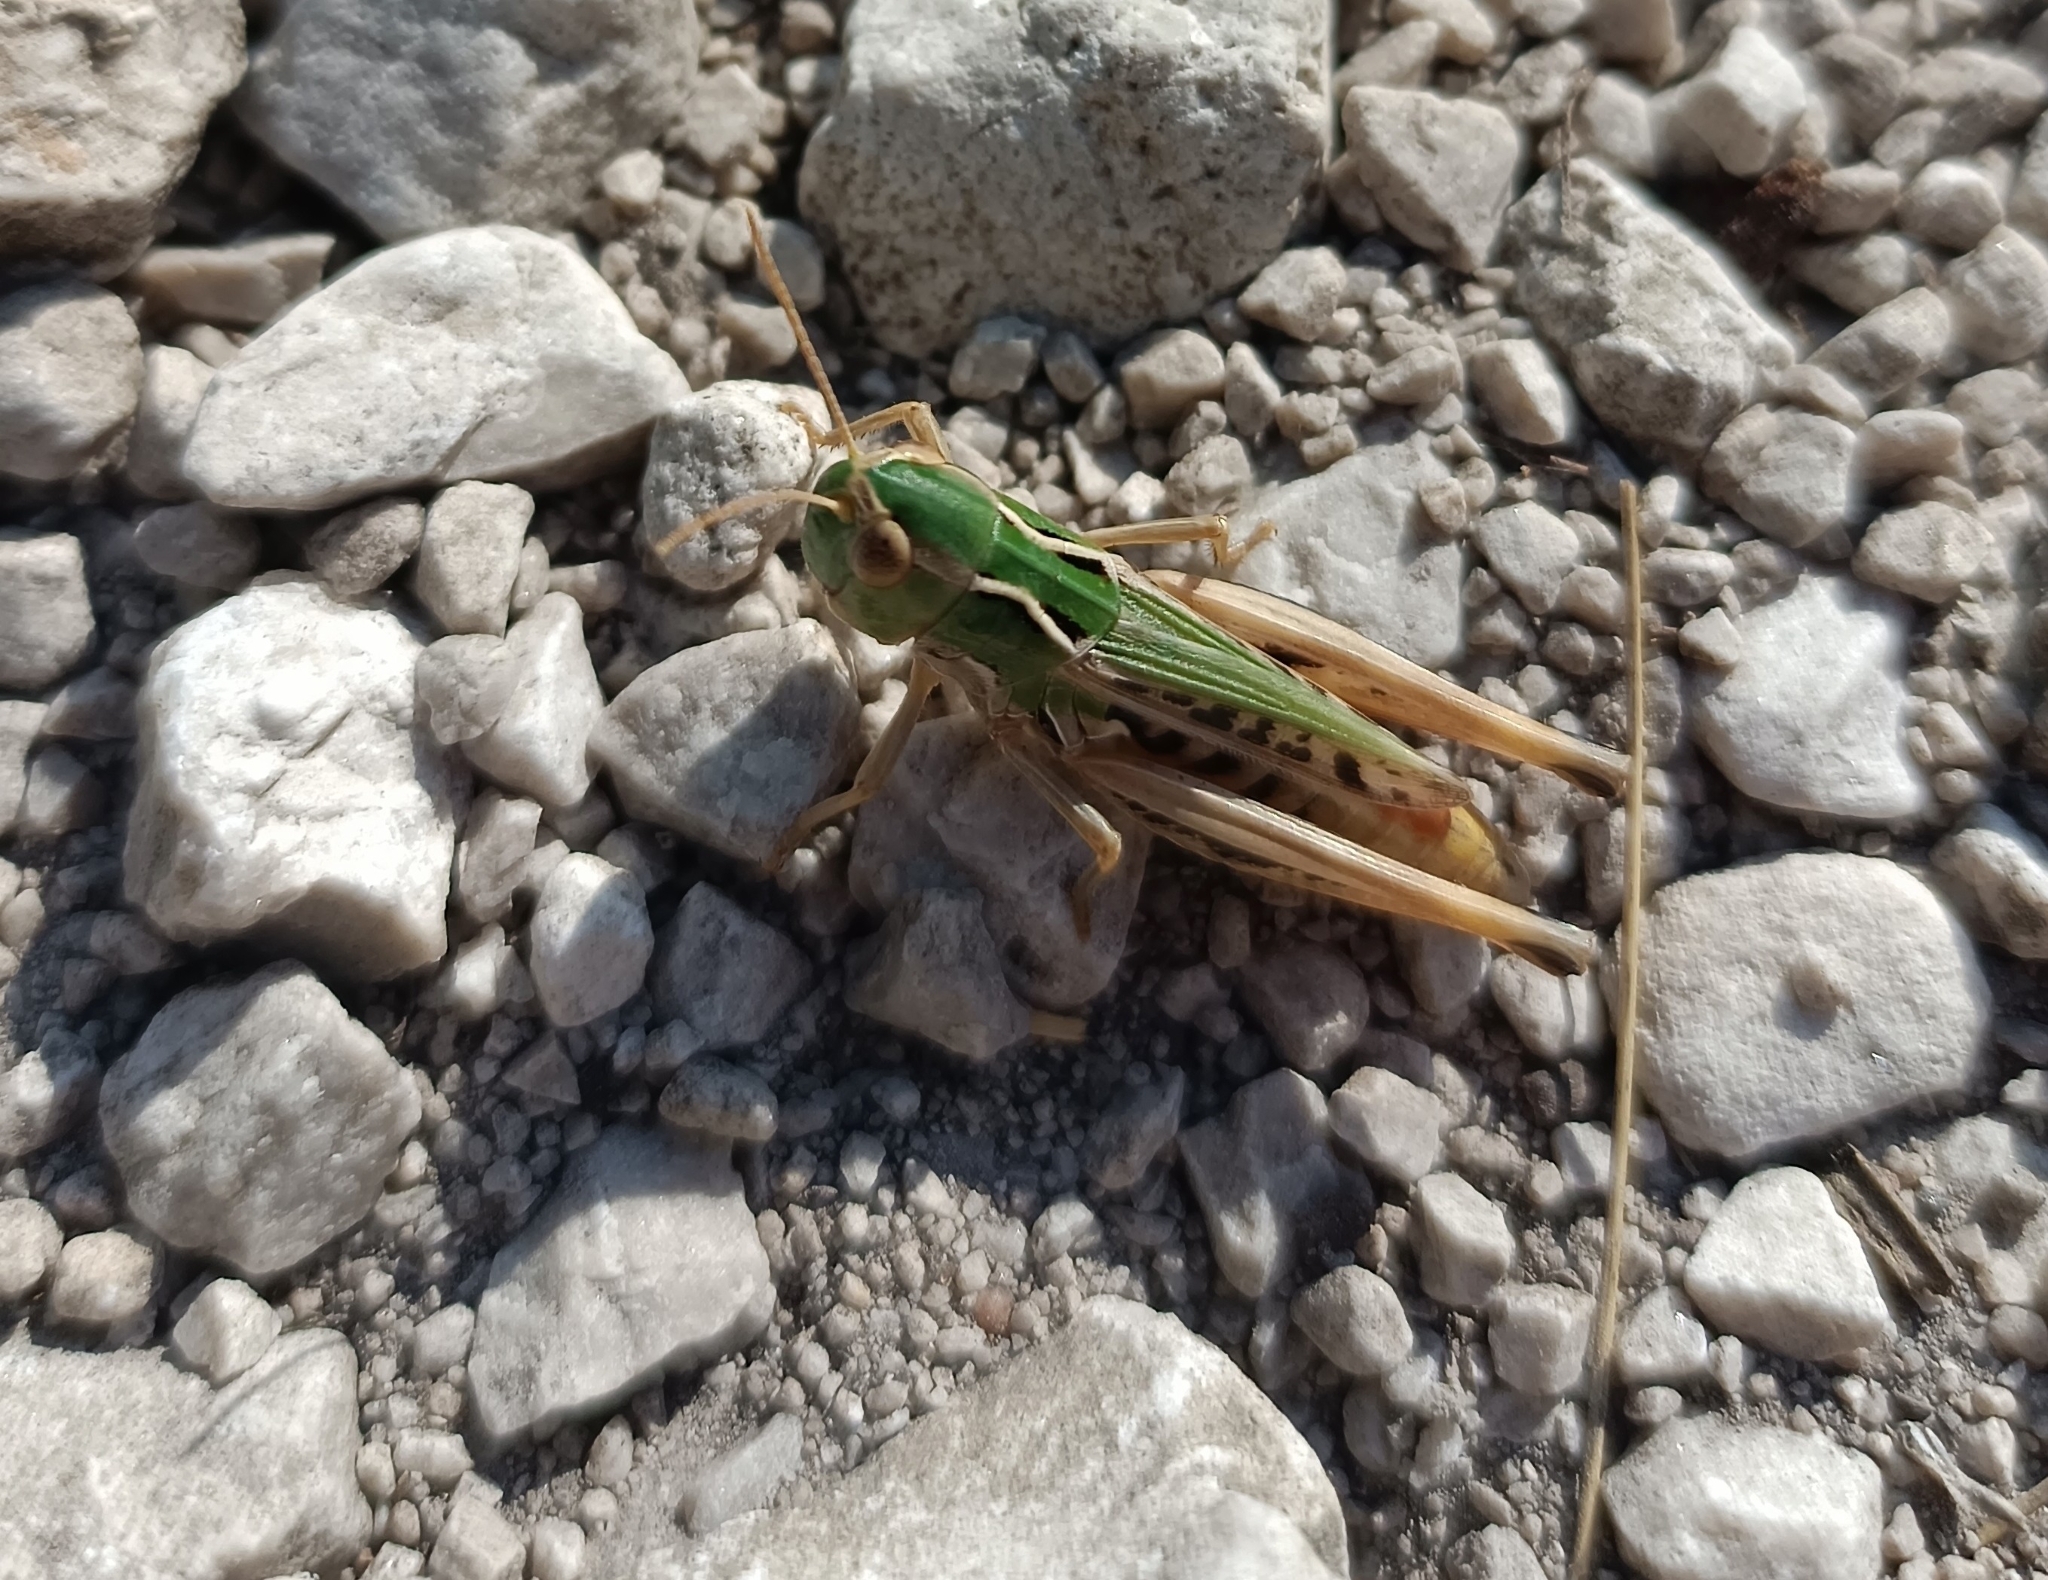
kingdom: Animalia
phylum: Arthropoda
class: Insecta
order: Orthoptera
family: Acrididae
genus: Stenobothrus
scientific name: Stenobothrus nigromaculatus
